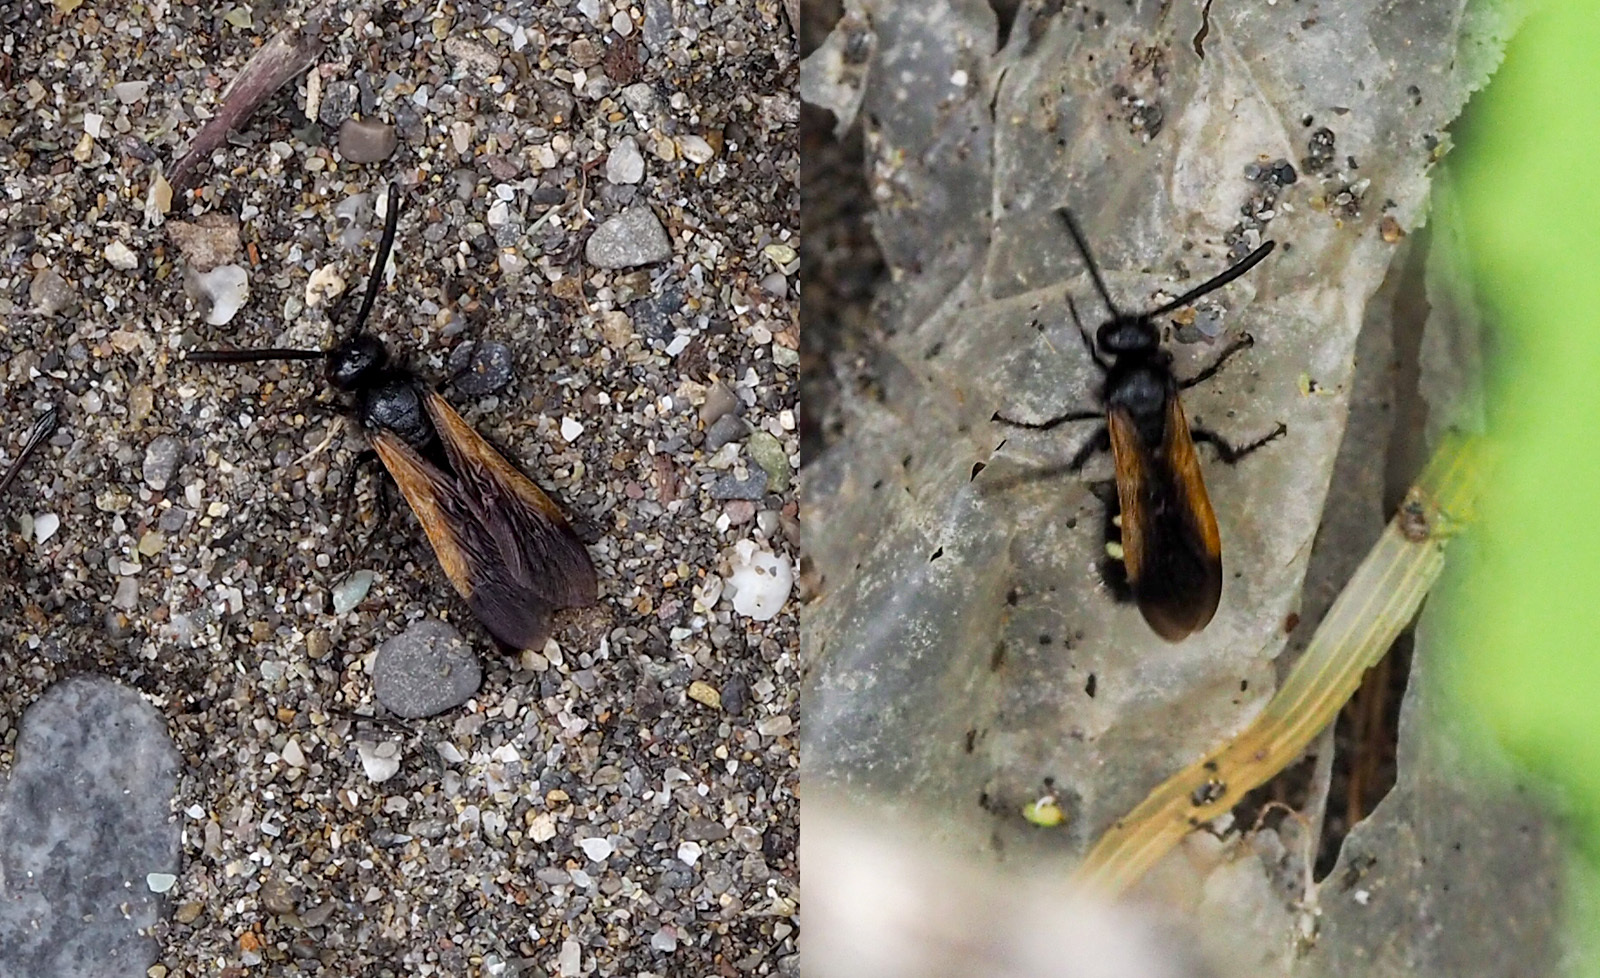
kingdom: Animalia
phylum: Arthropoda
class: Insecta
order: Hymenoptera
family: Vespidae
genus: Vespa
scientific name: Vespa sexmaculata
